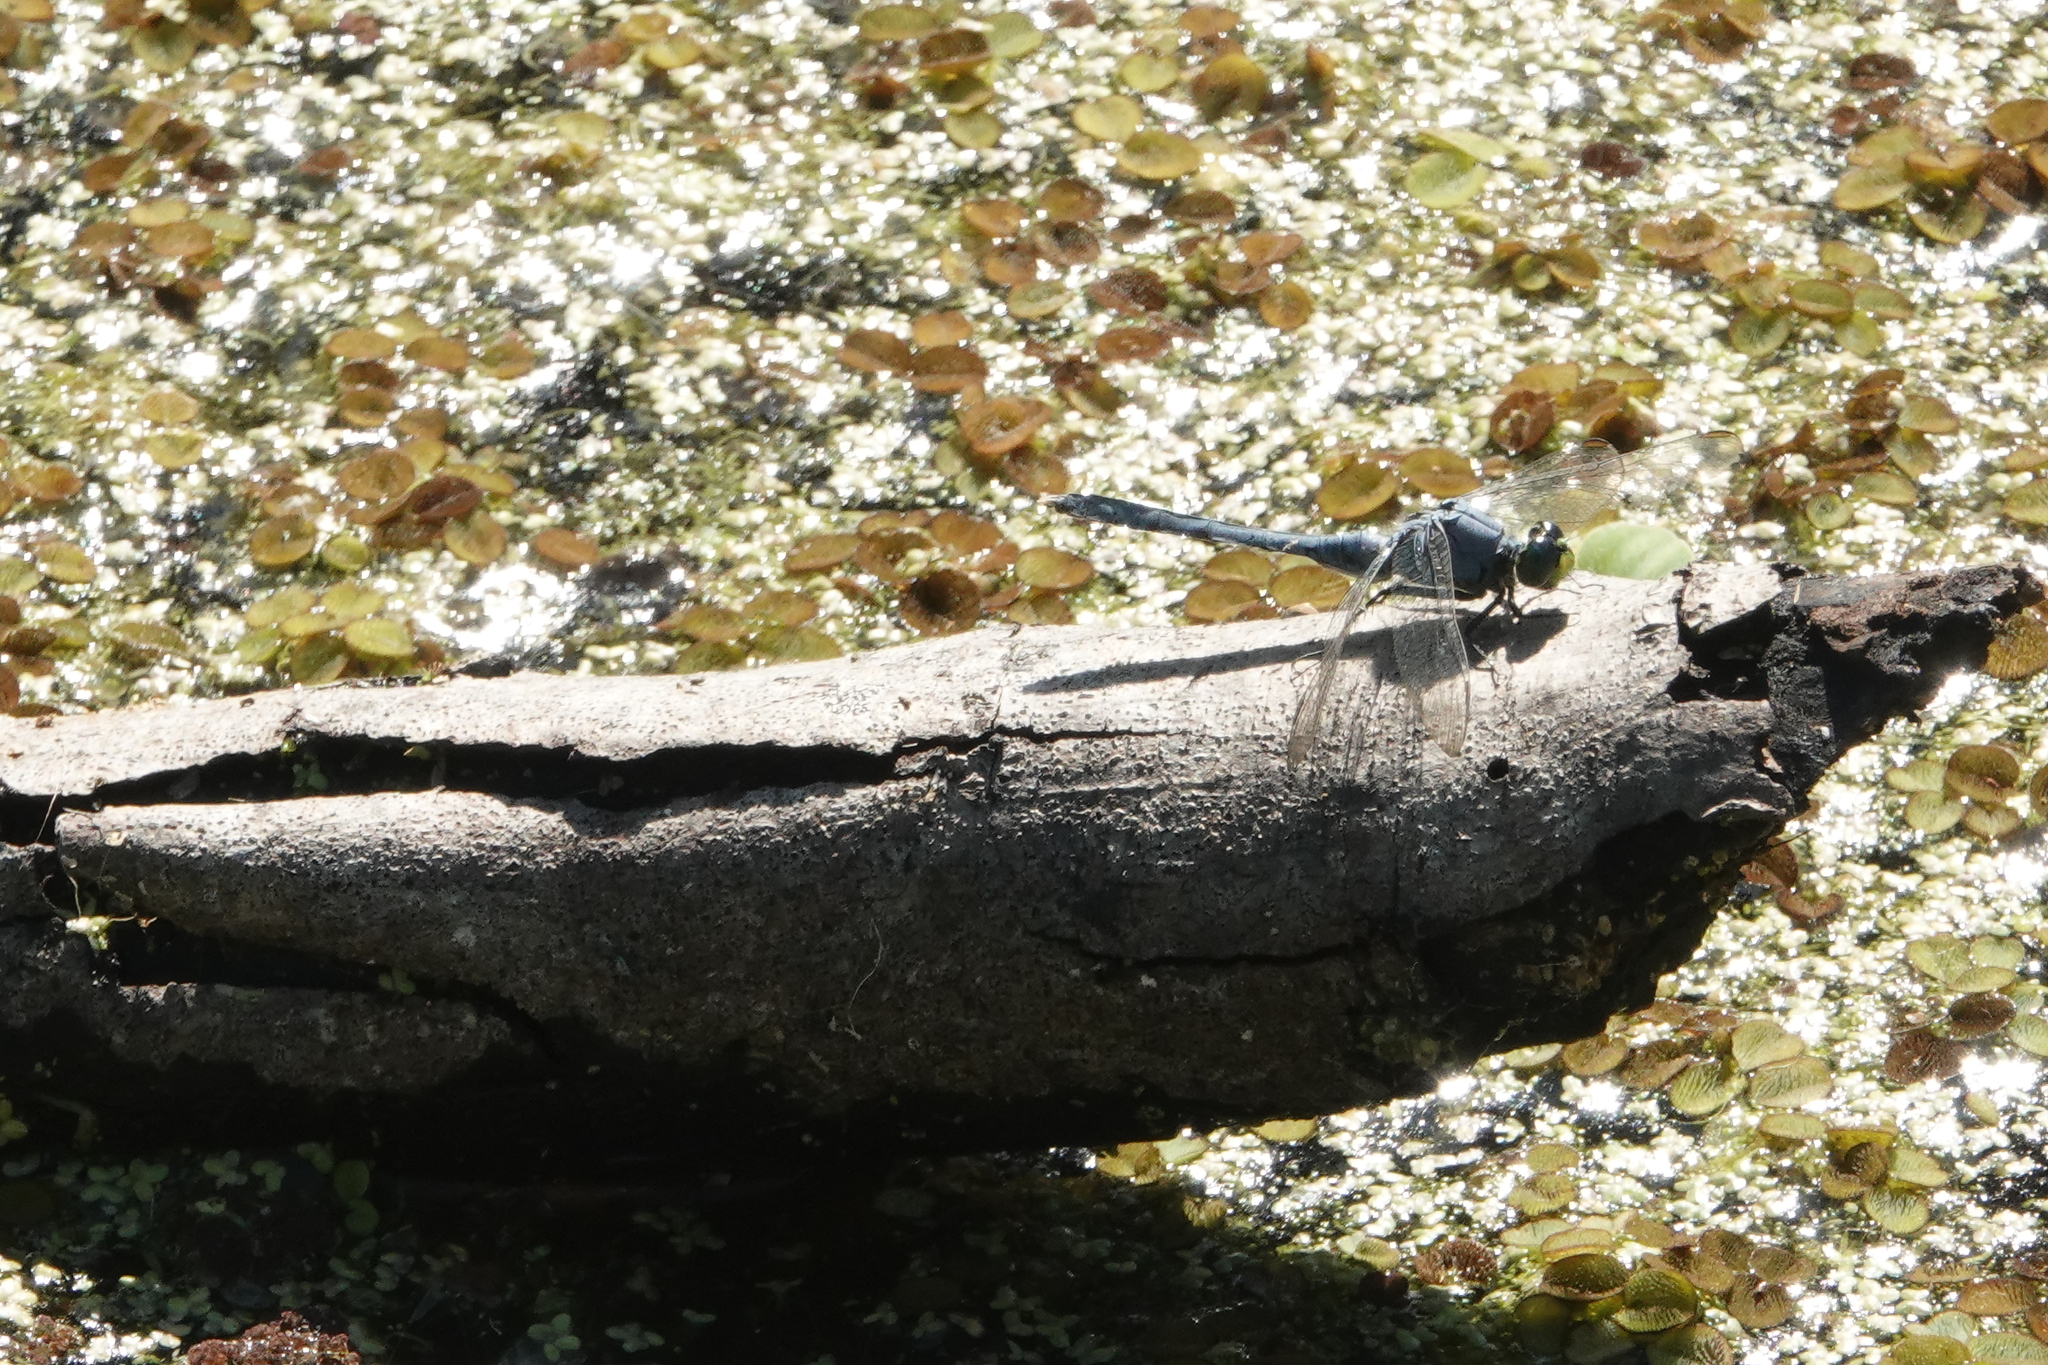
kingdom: Animalia
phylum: Arthropoda
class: Insecta
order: Odonata
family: Libellulidae
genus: Erythemis
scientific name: Erythemis simplicicollis
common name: Eastern pondhawk
